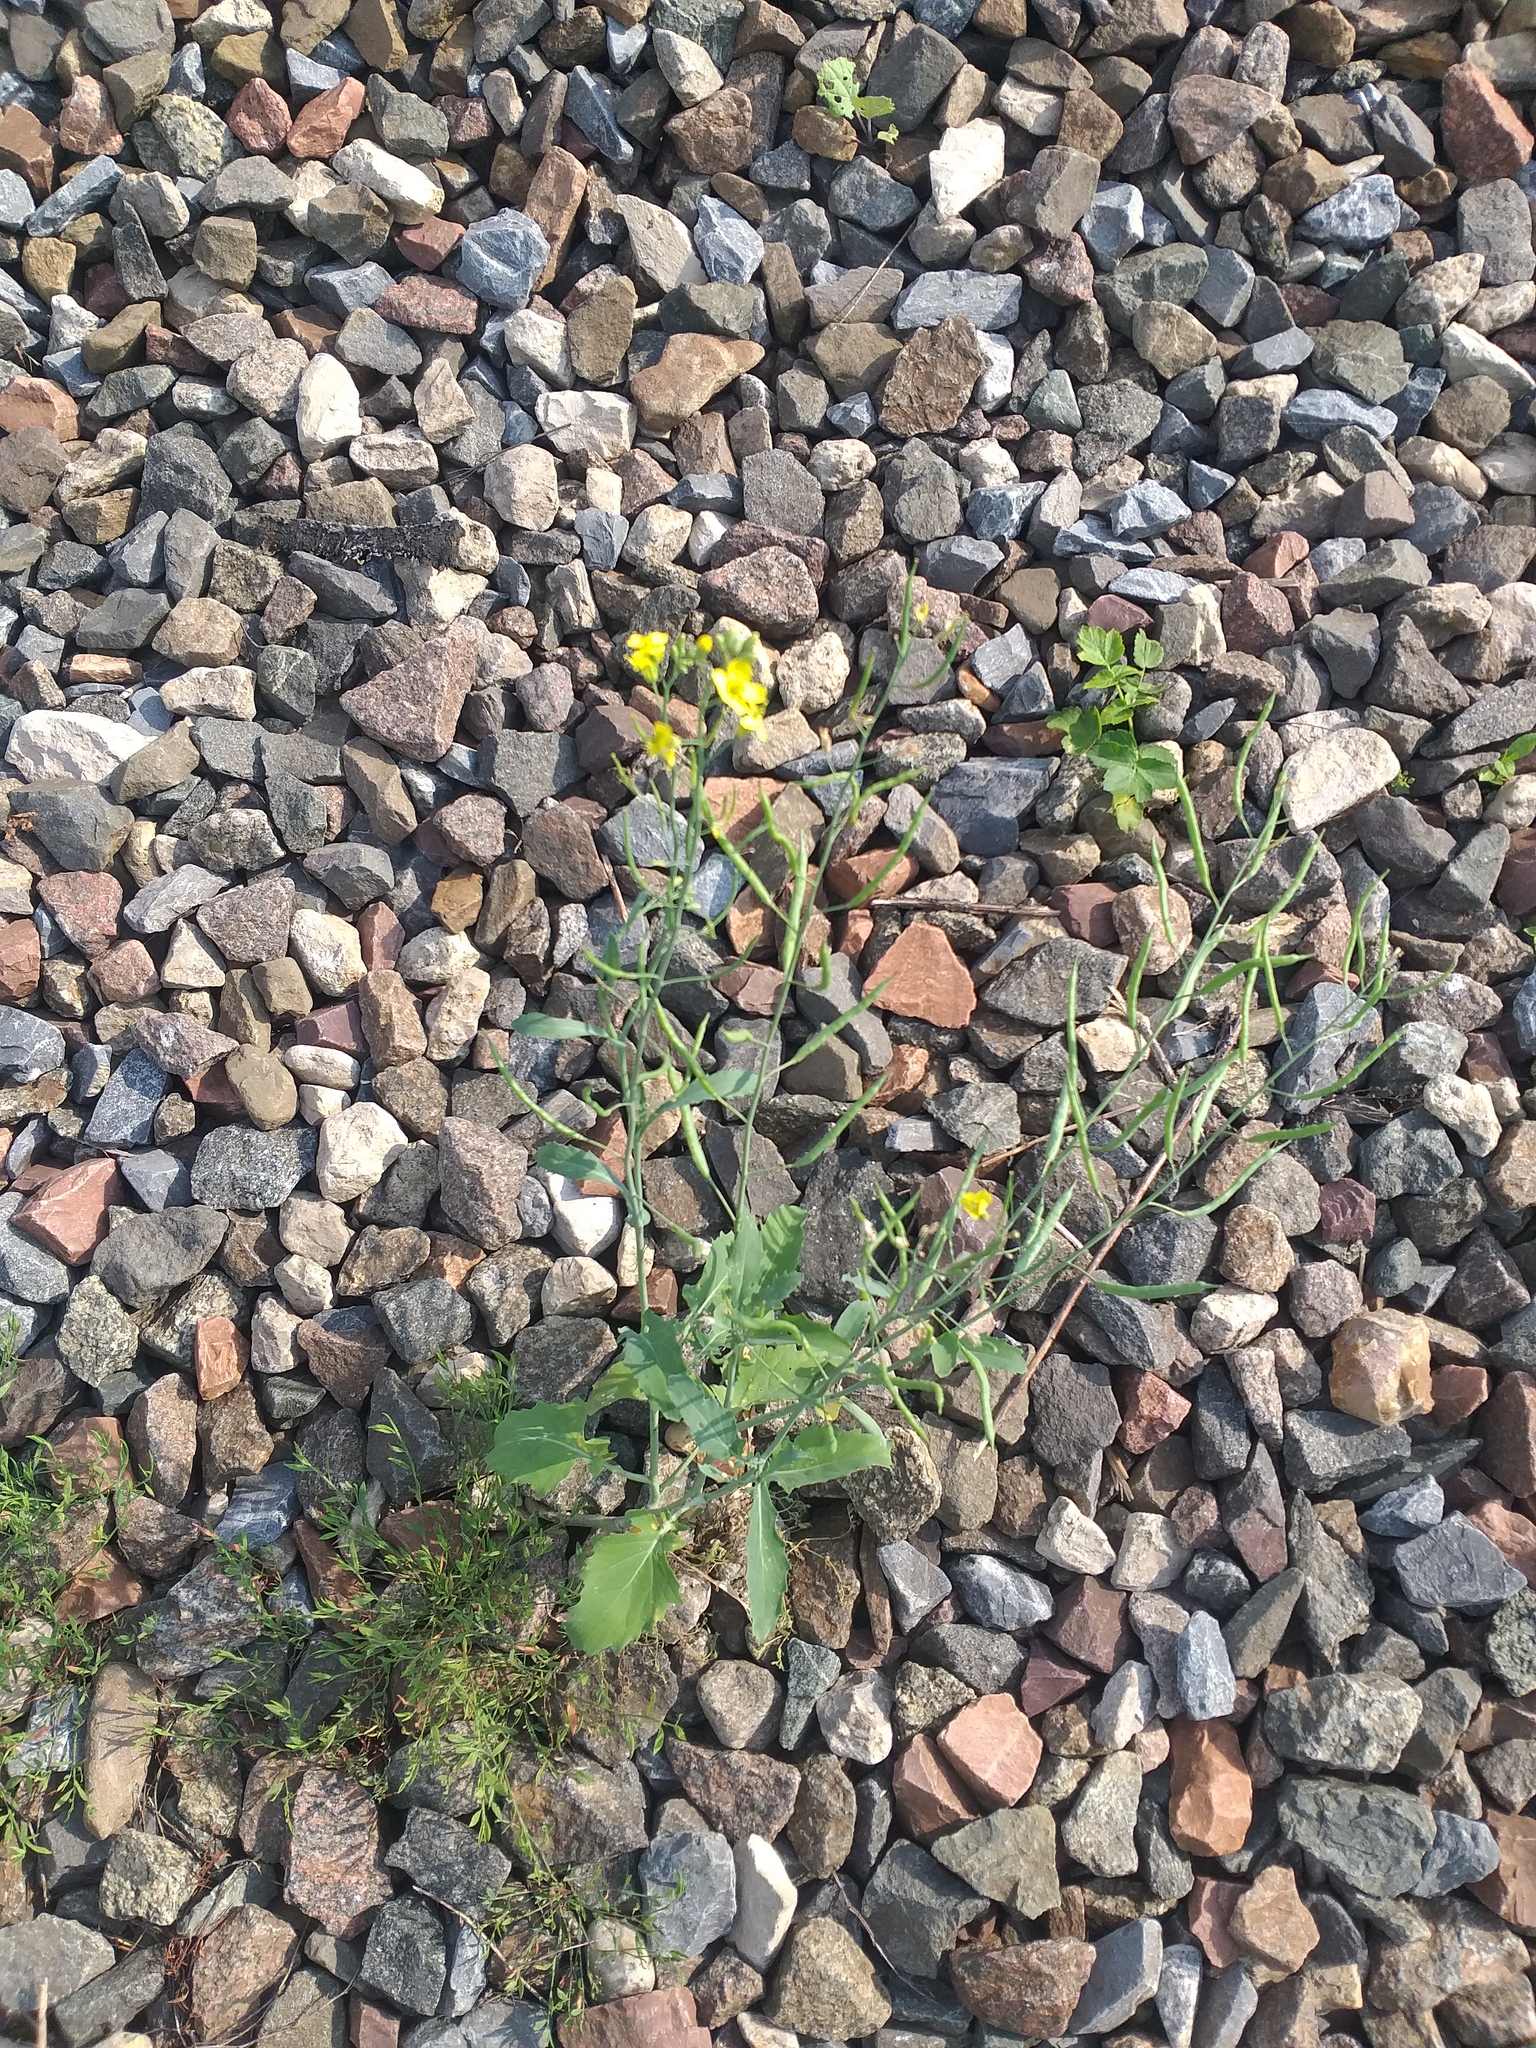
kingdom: Plantae
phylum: Tracheophyta
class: Magnoliopsida
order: Brassicales
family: Brassicaceae
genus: Brassica
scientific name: Brassica napus
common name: Rape
